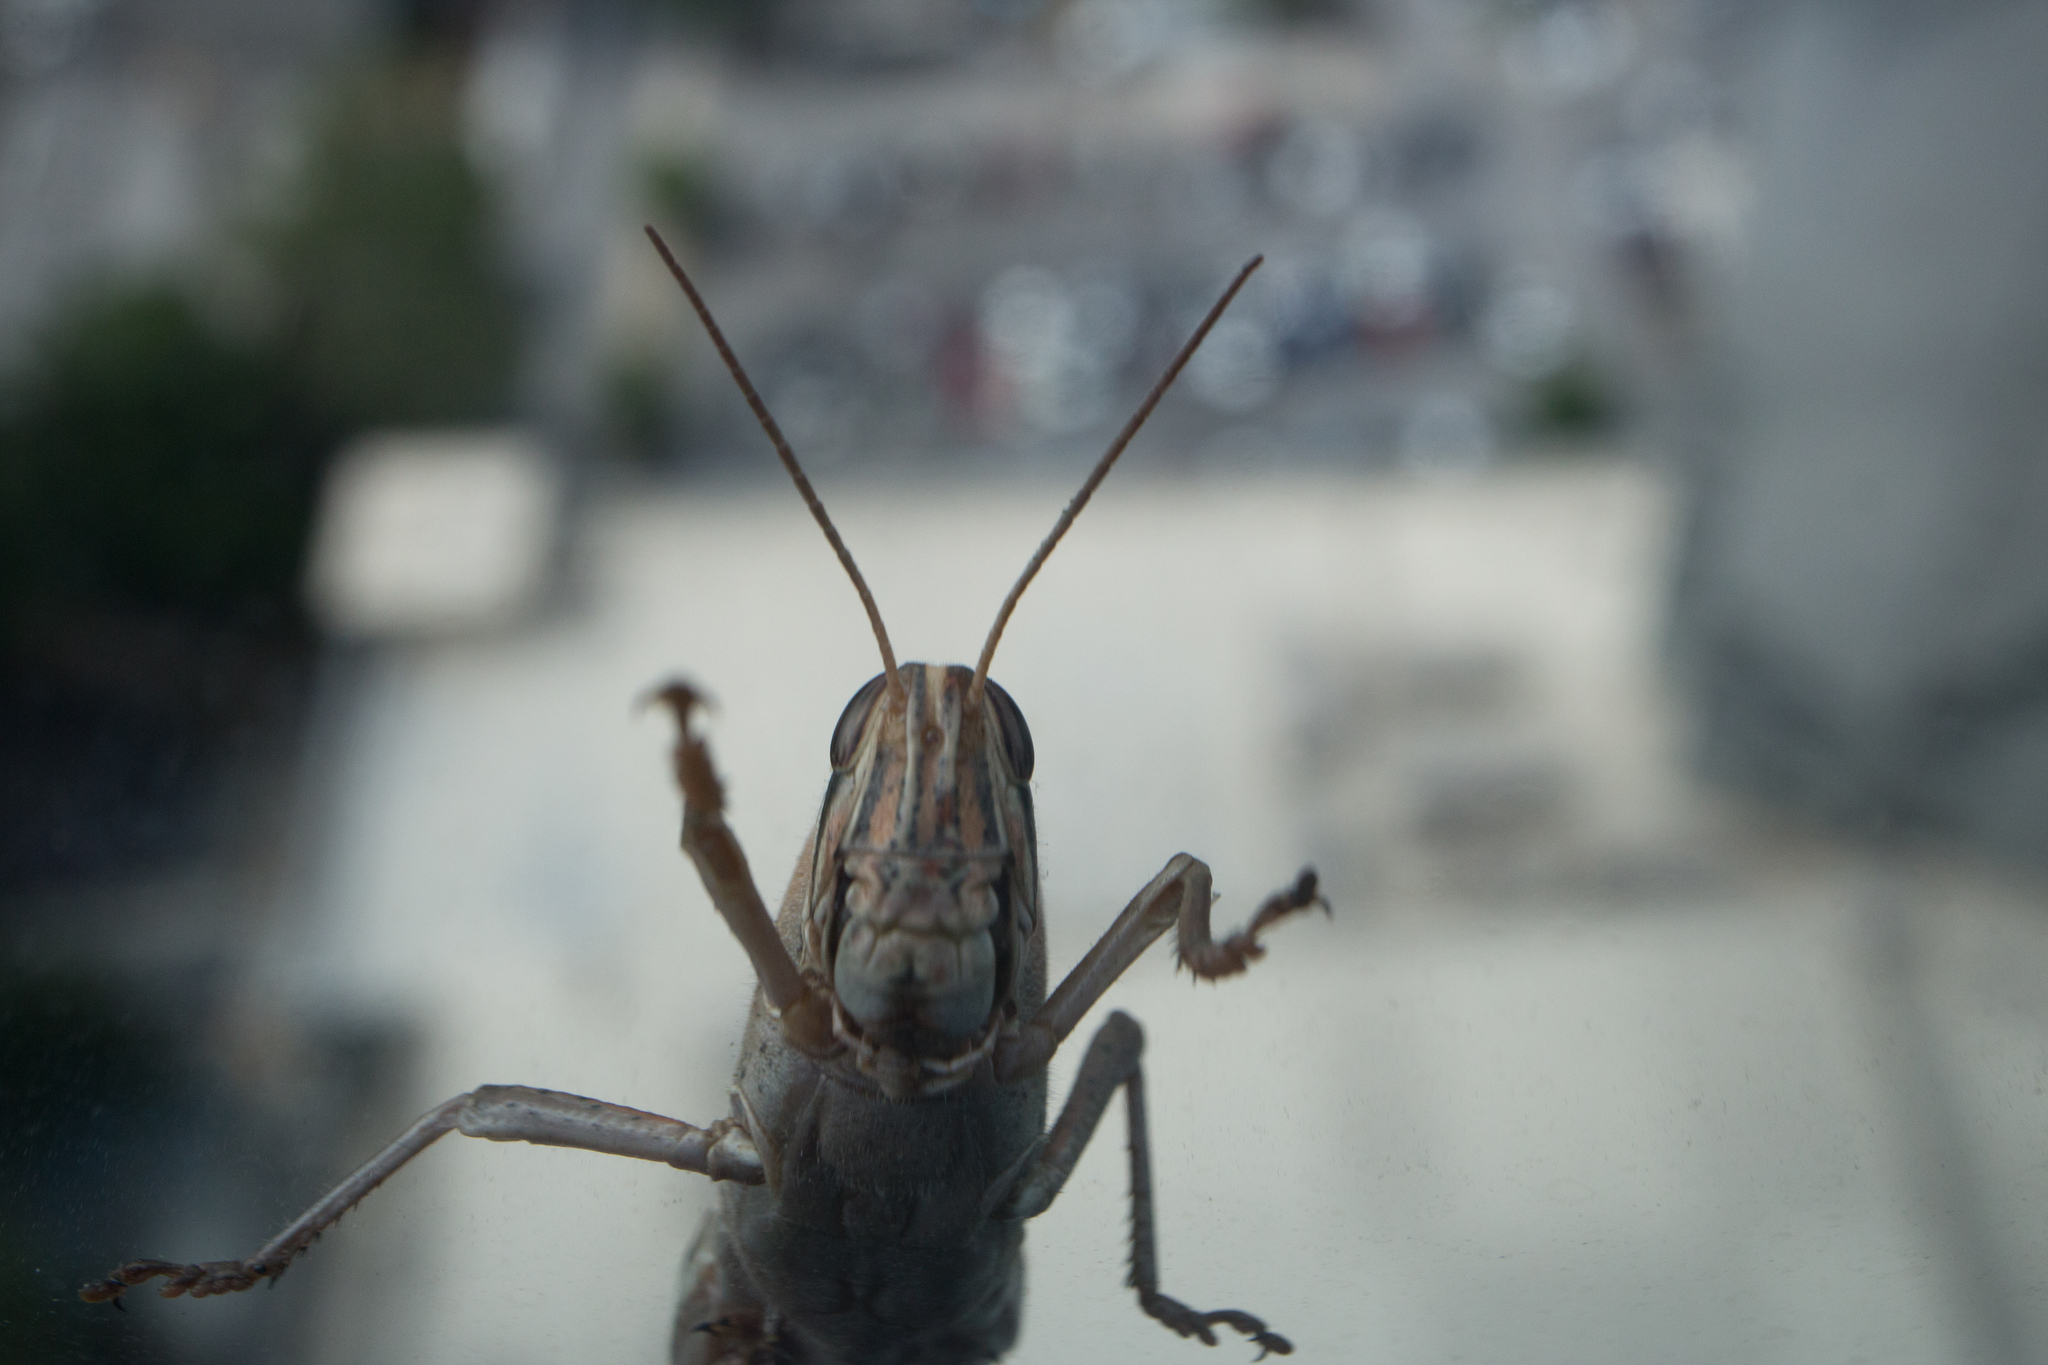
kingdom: Animalia
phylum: Arthropoda
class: Insecta
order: Orthoptera
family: Acrididae
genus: Schistocerca
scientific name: Schistocerca americana
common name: American bird locust
